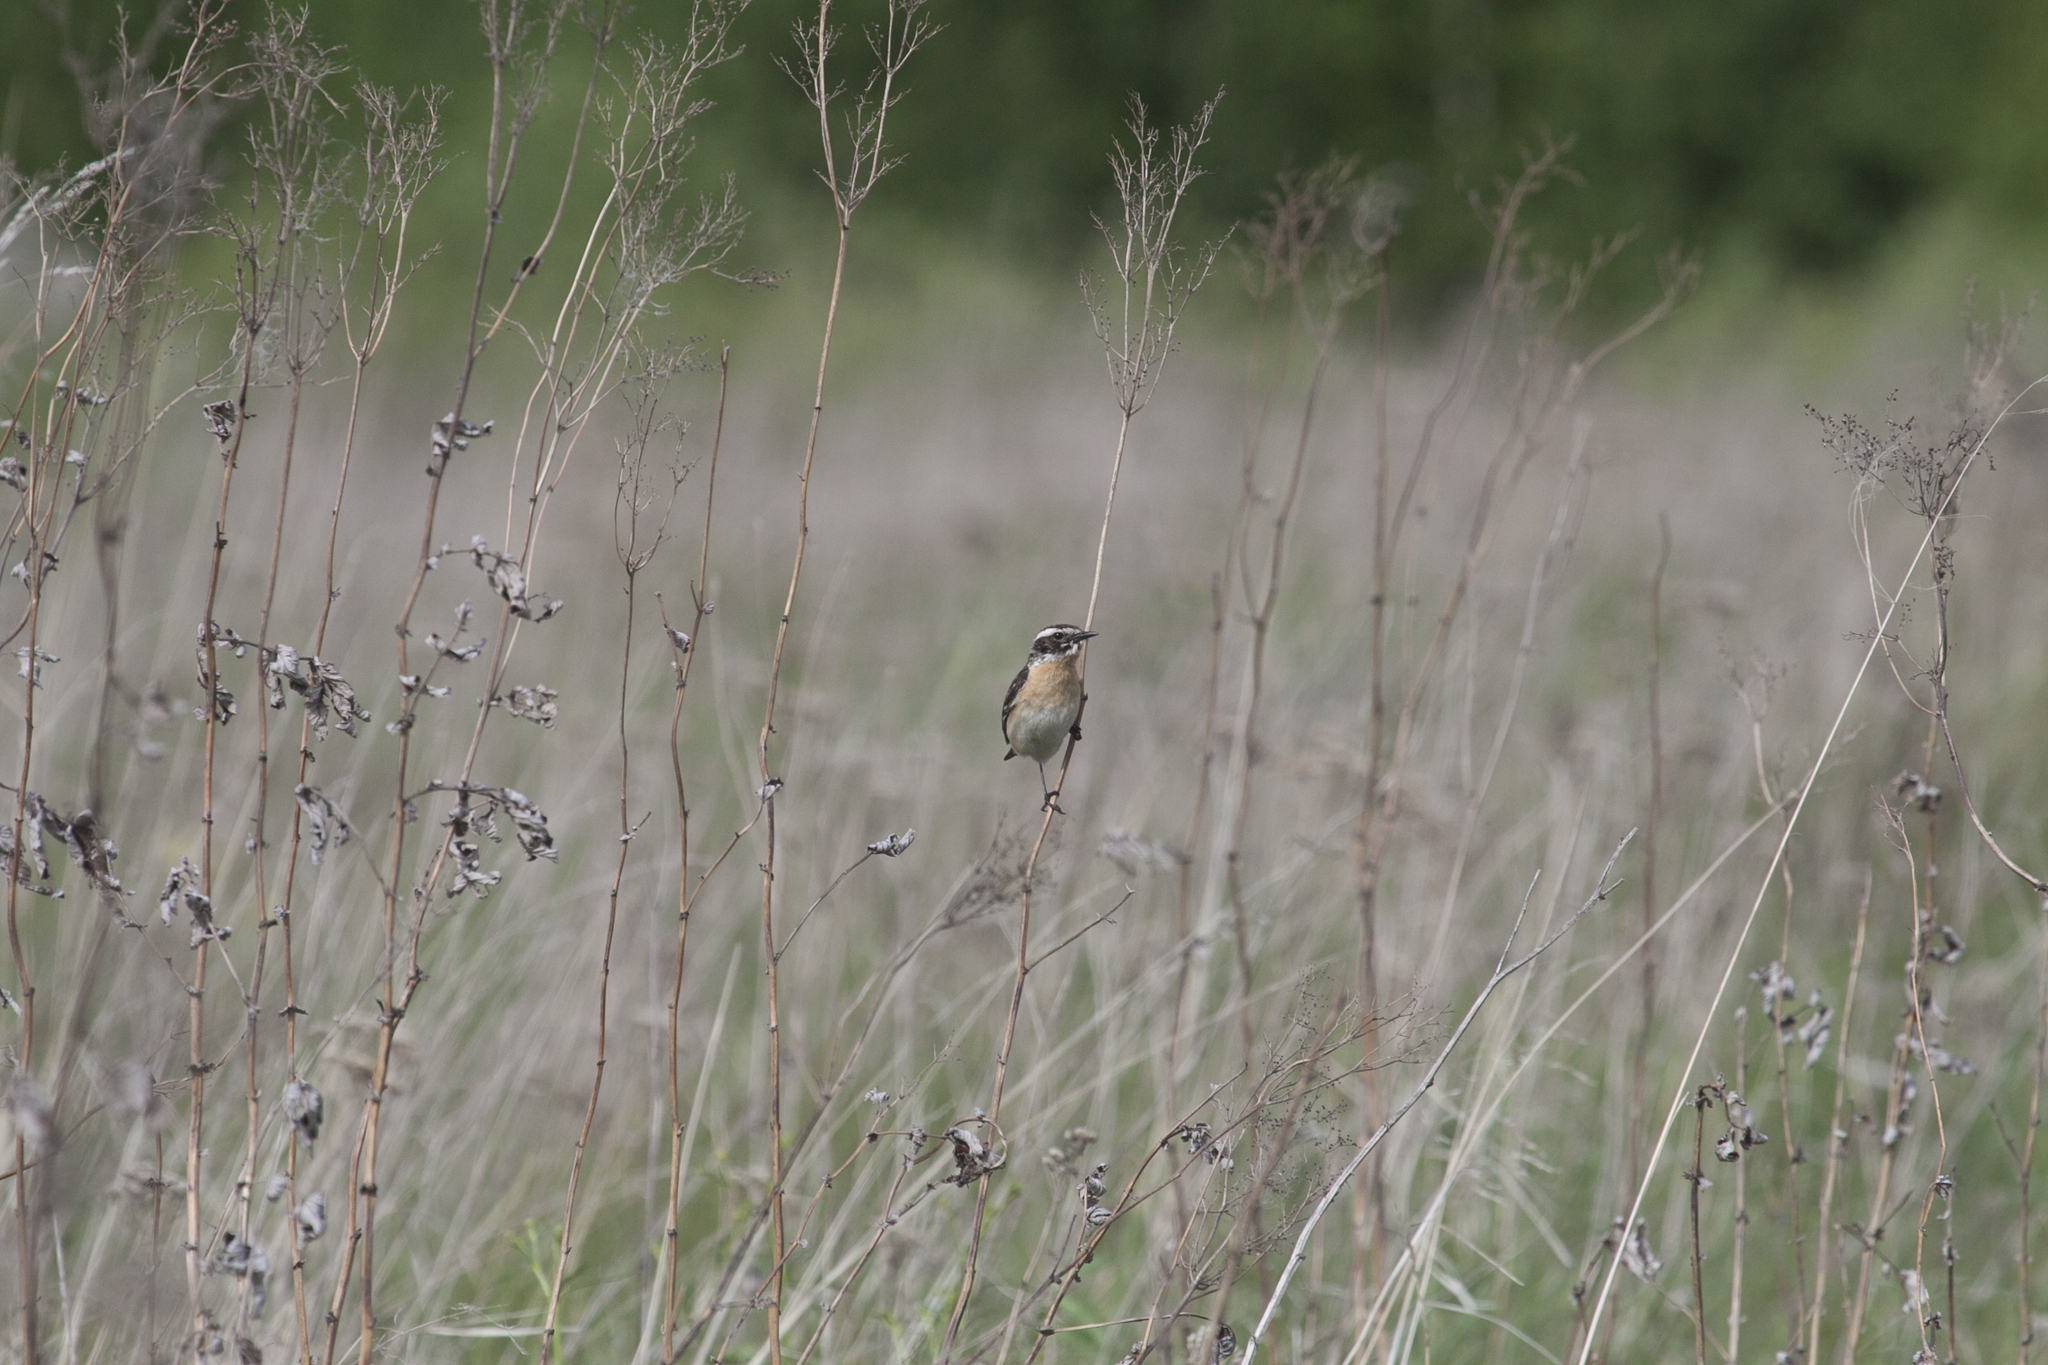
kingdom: Animalia
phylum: Chordata
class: Aves
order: Passeriformes
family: Muscicapidae
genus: Saxicola
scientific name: Saxicola rubetra
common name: Whinchat
